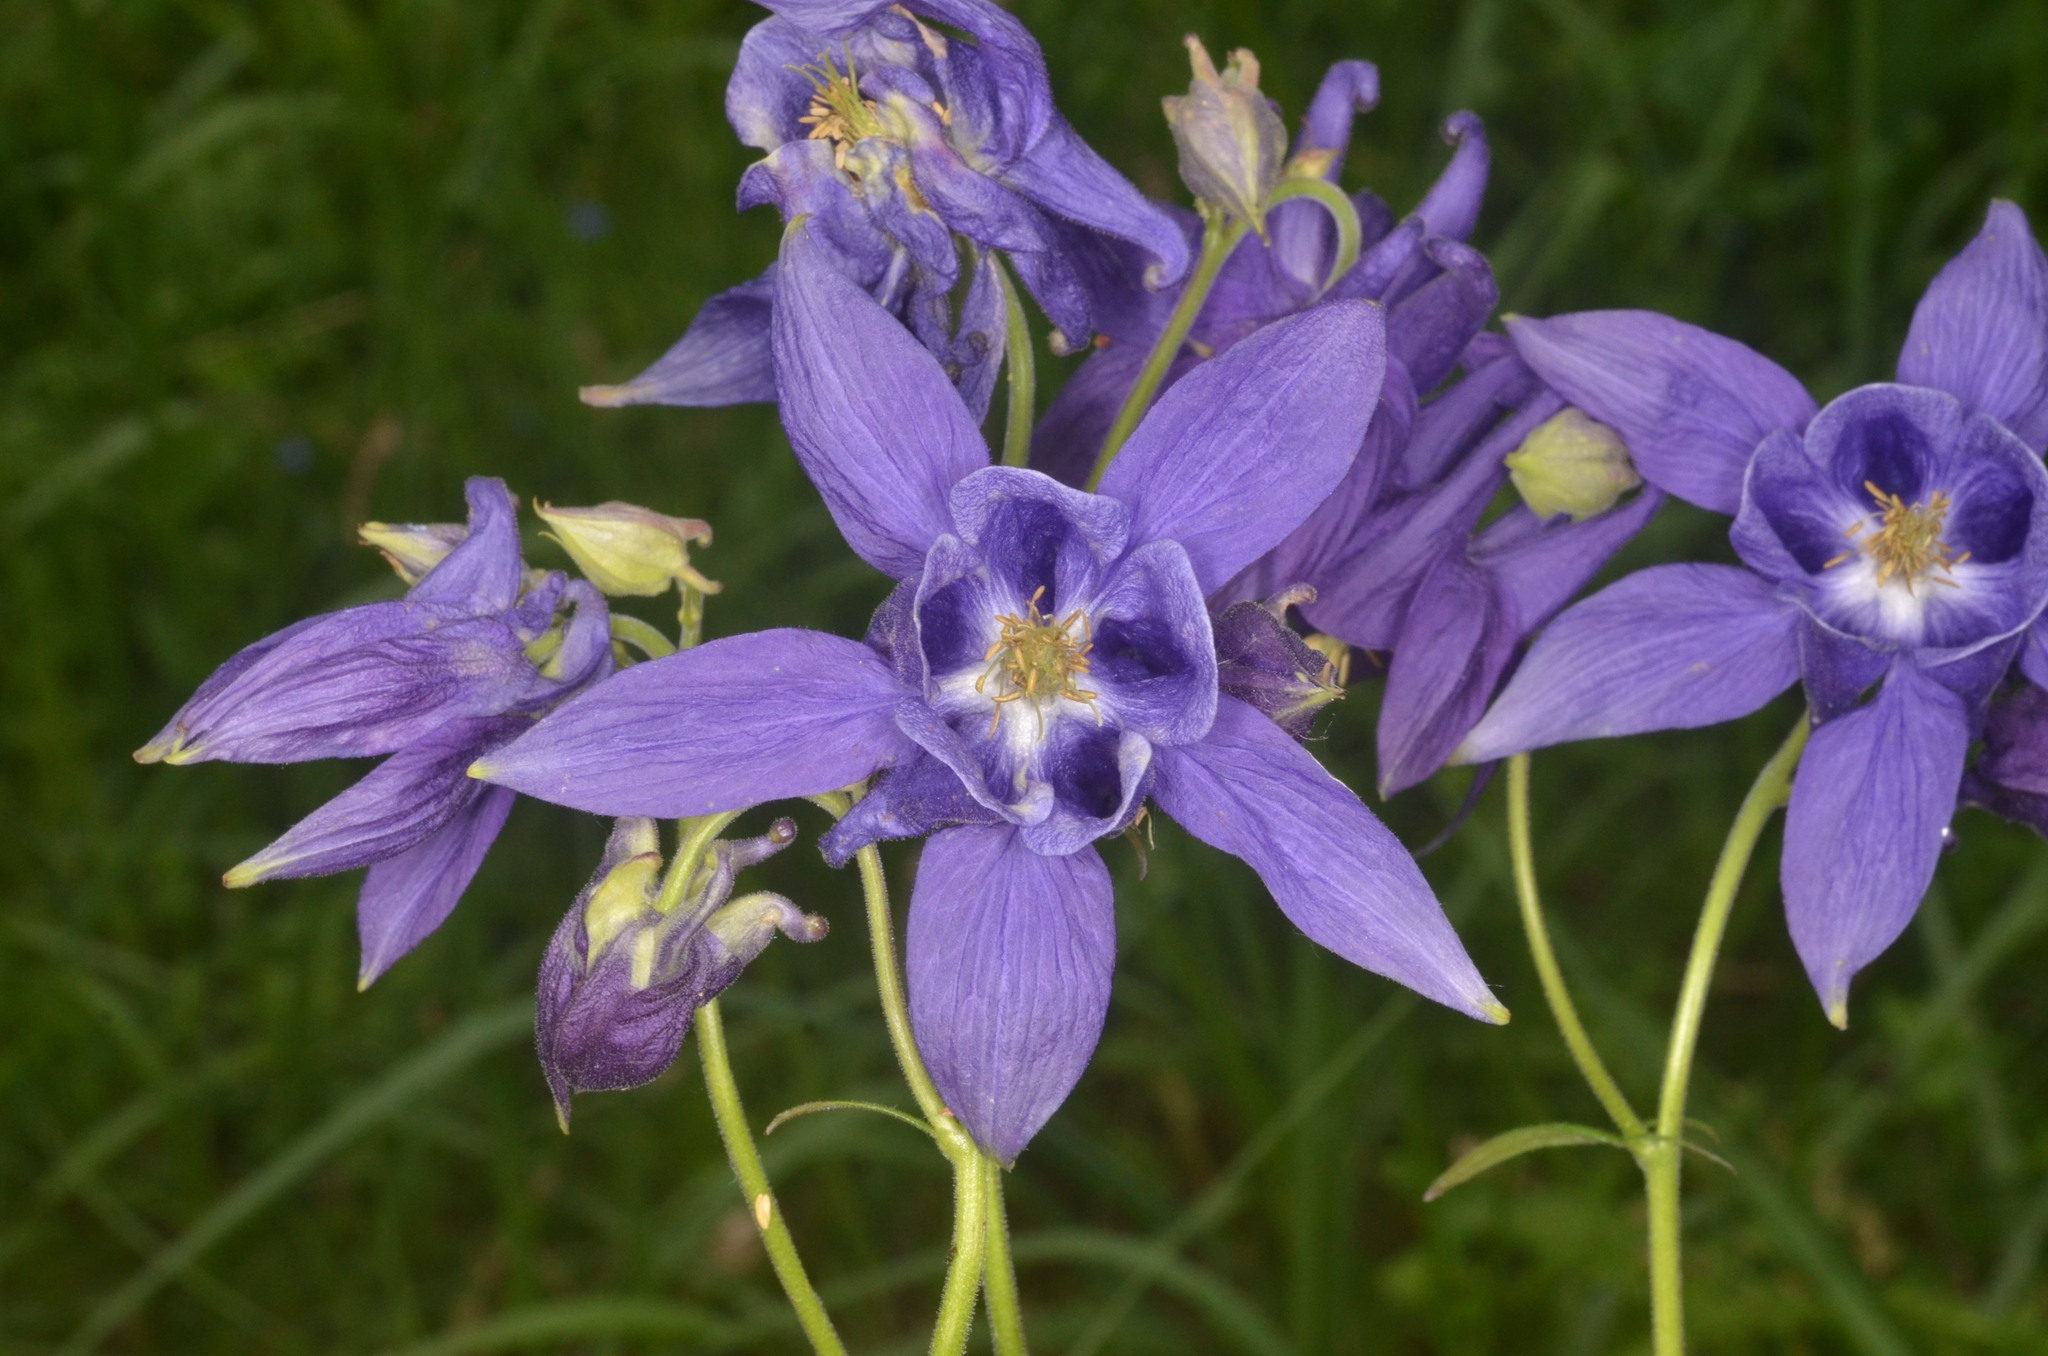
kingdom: Plantae
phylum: Tracheophyta
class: Magnoliopsida
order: Ranunculales
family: Ranunculaceae
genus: Aquilegia
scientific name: Aquilegia vulgaris
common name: Columbine
